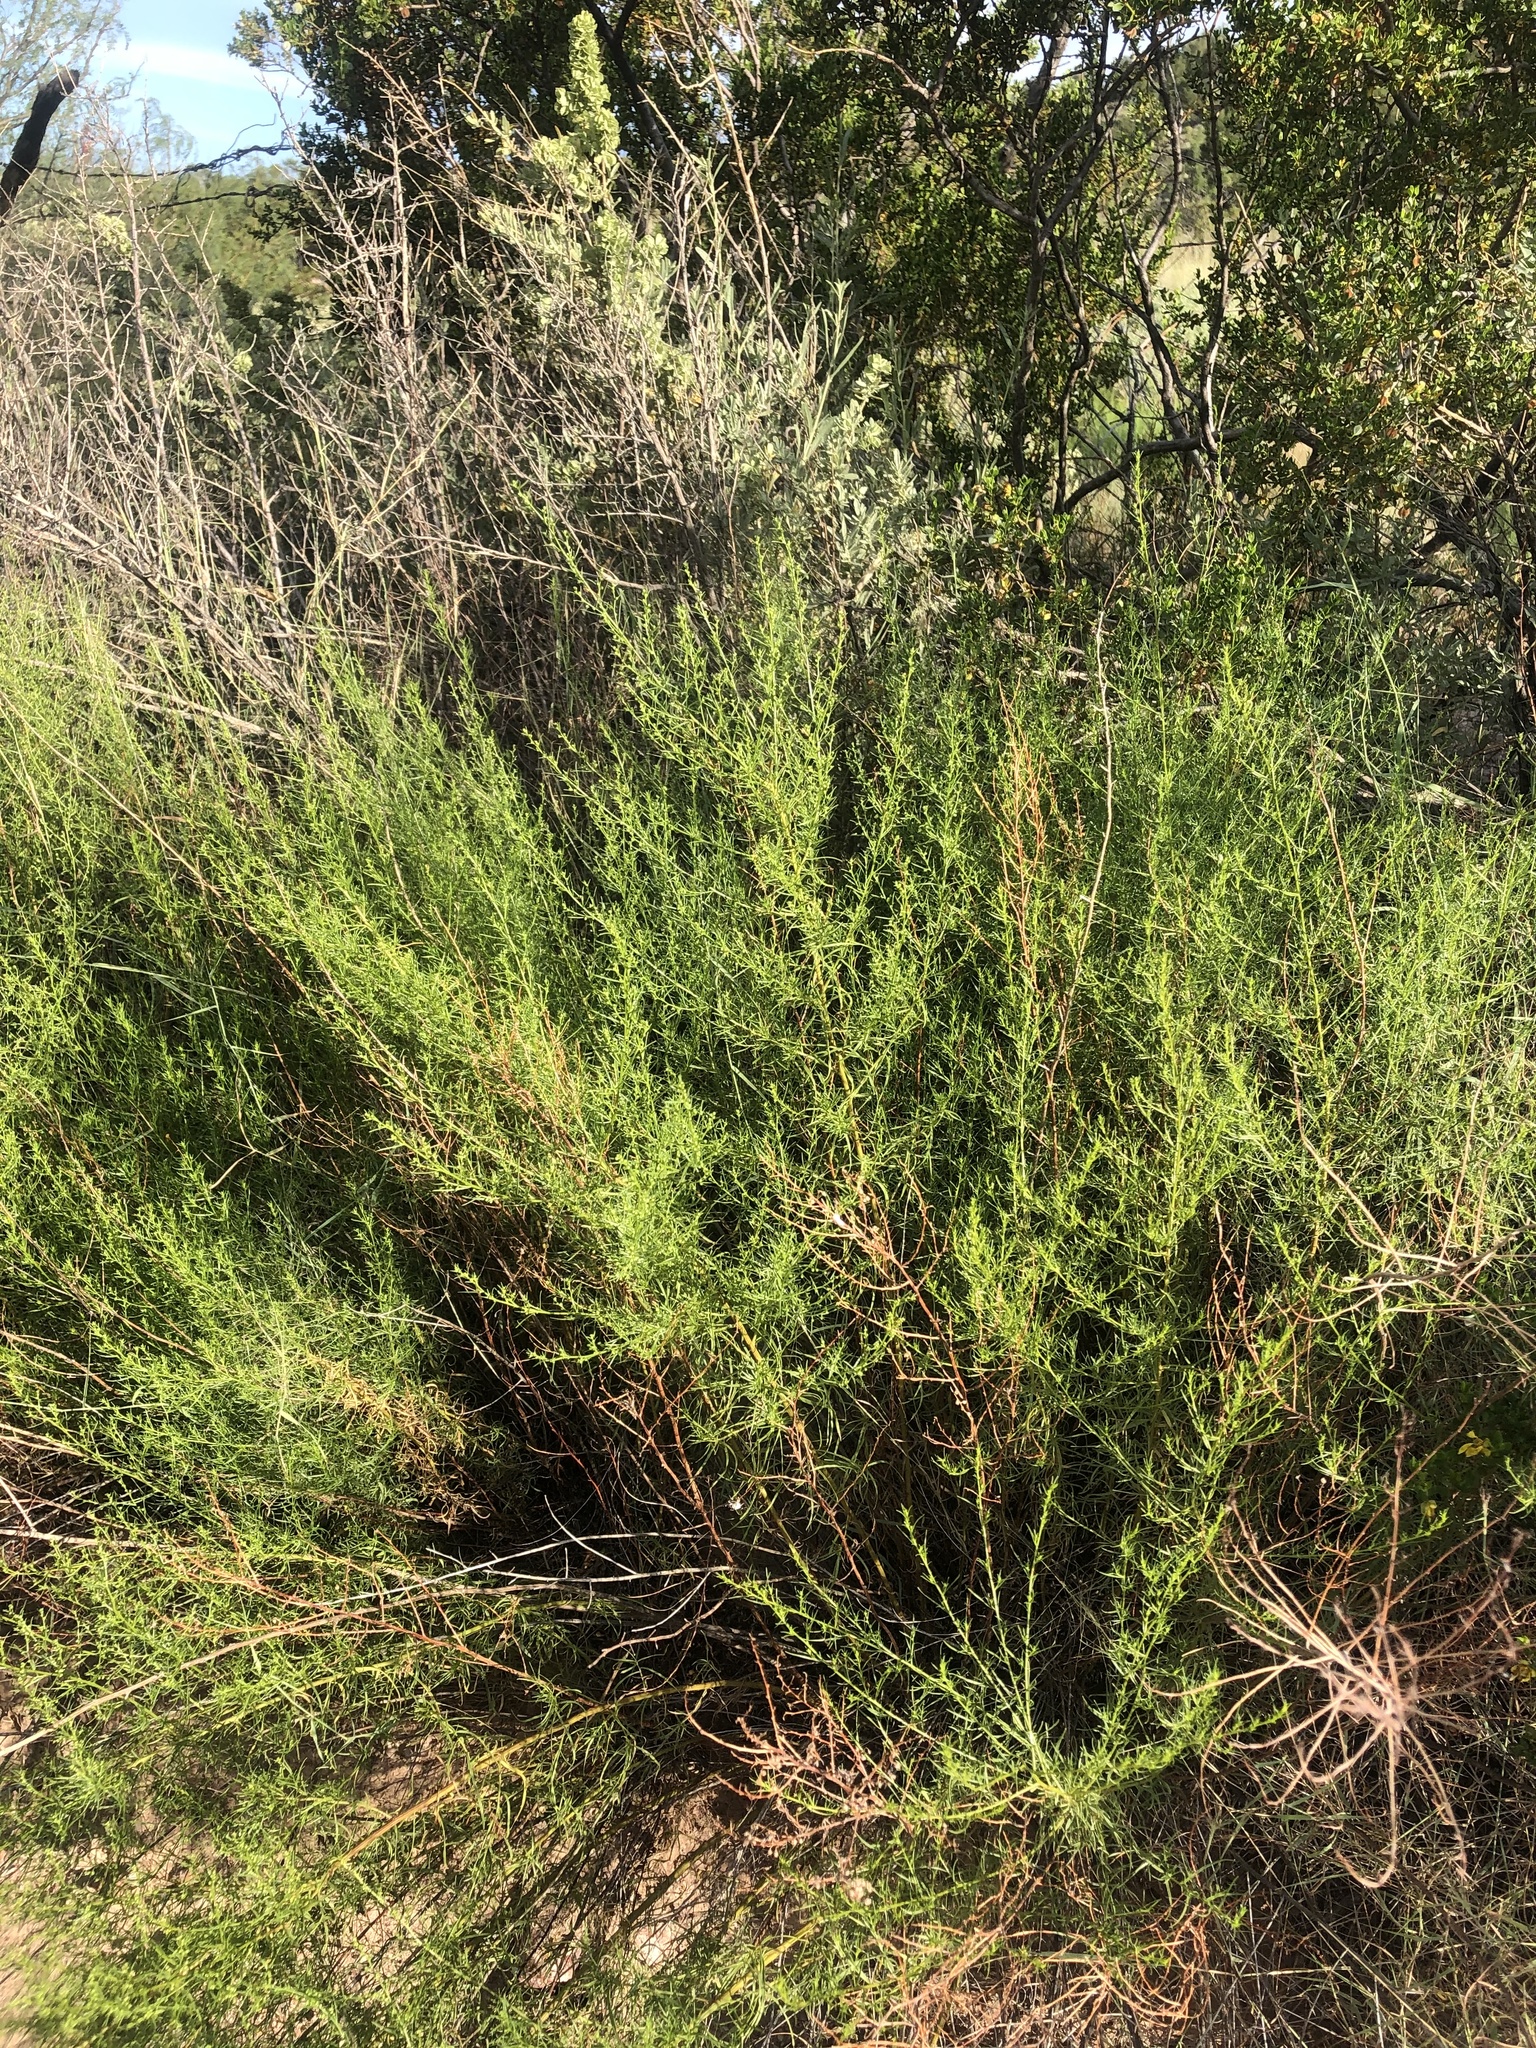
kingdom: Plantae
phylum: Tracheophyta
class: Magnoliopsida
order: Asterales
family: Asteraceae
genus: Artemisia
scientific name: Artemisia dracunculus
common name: Tarragon
